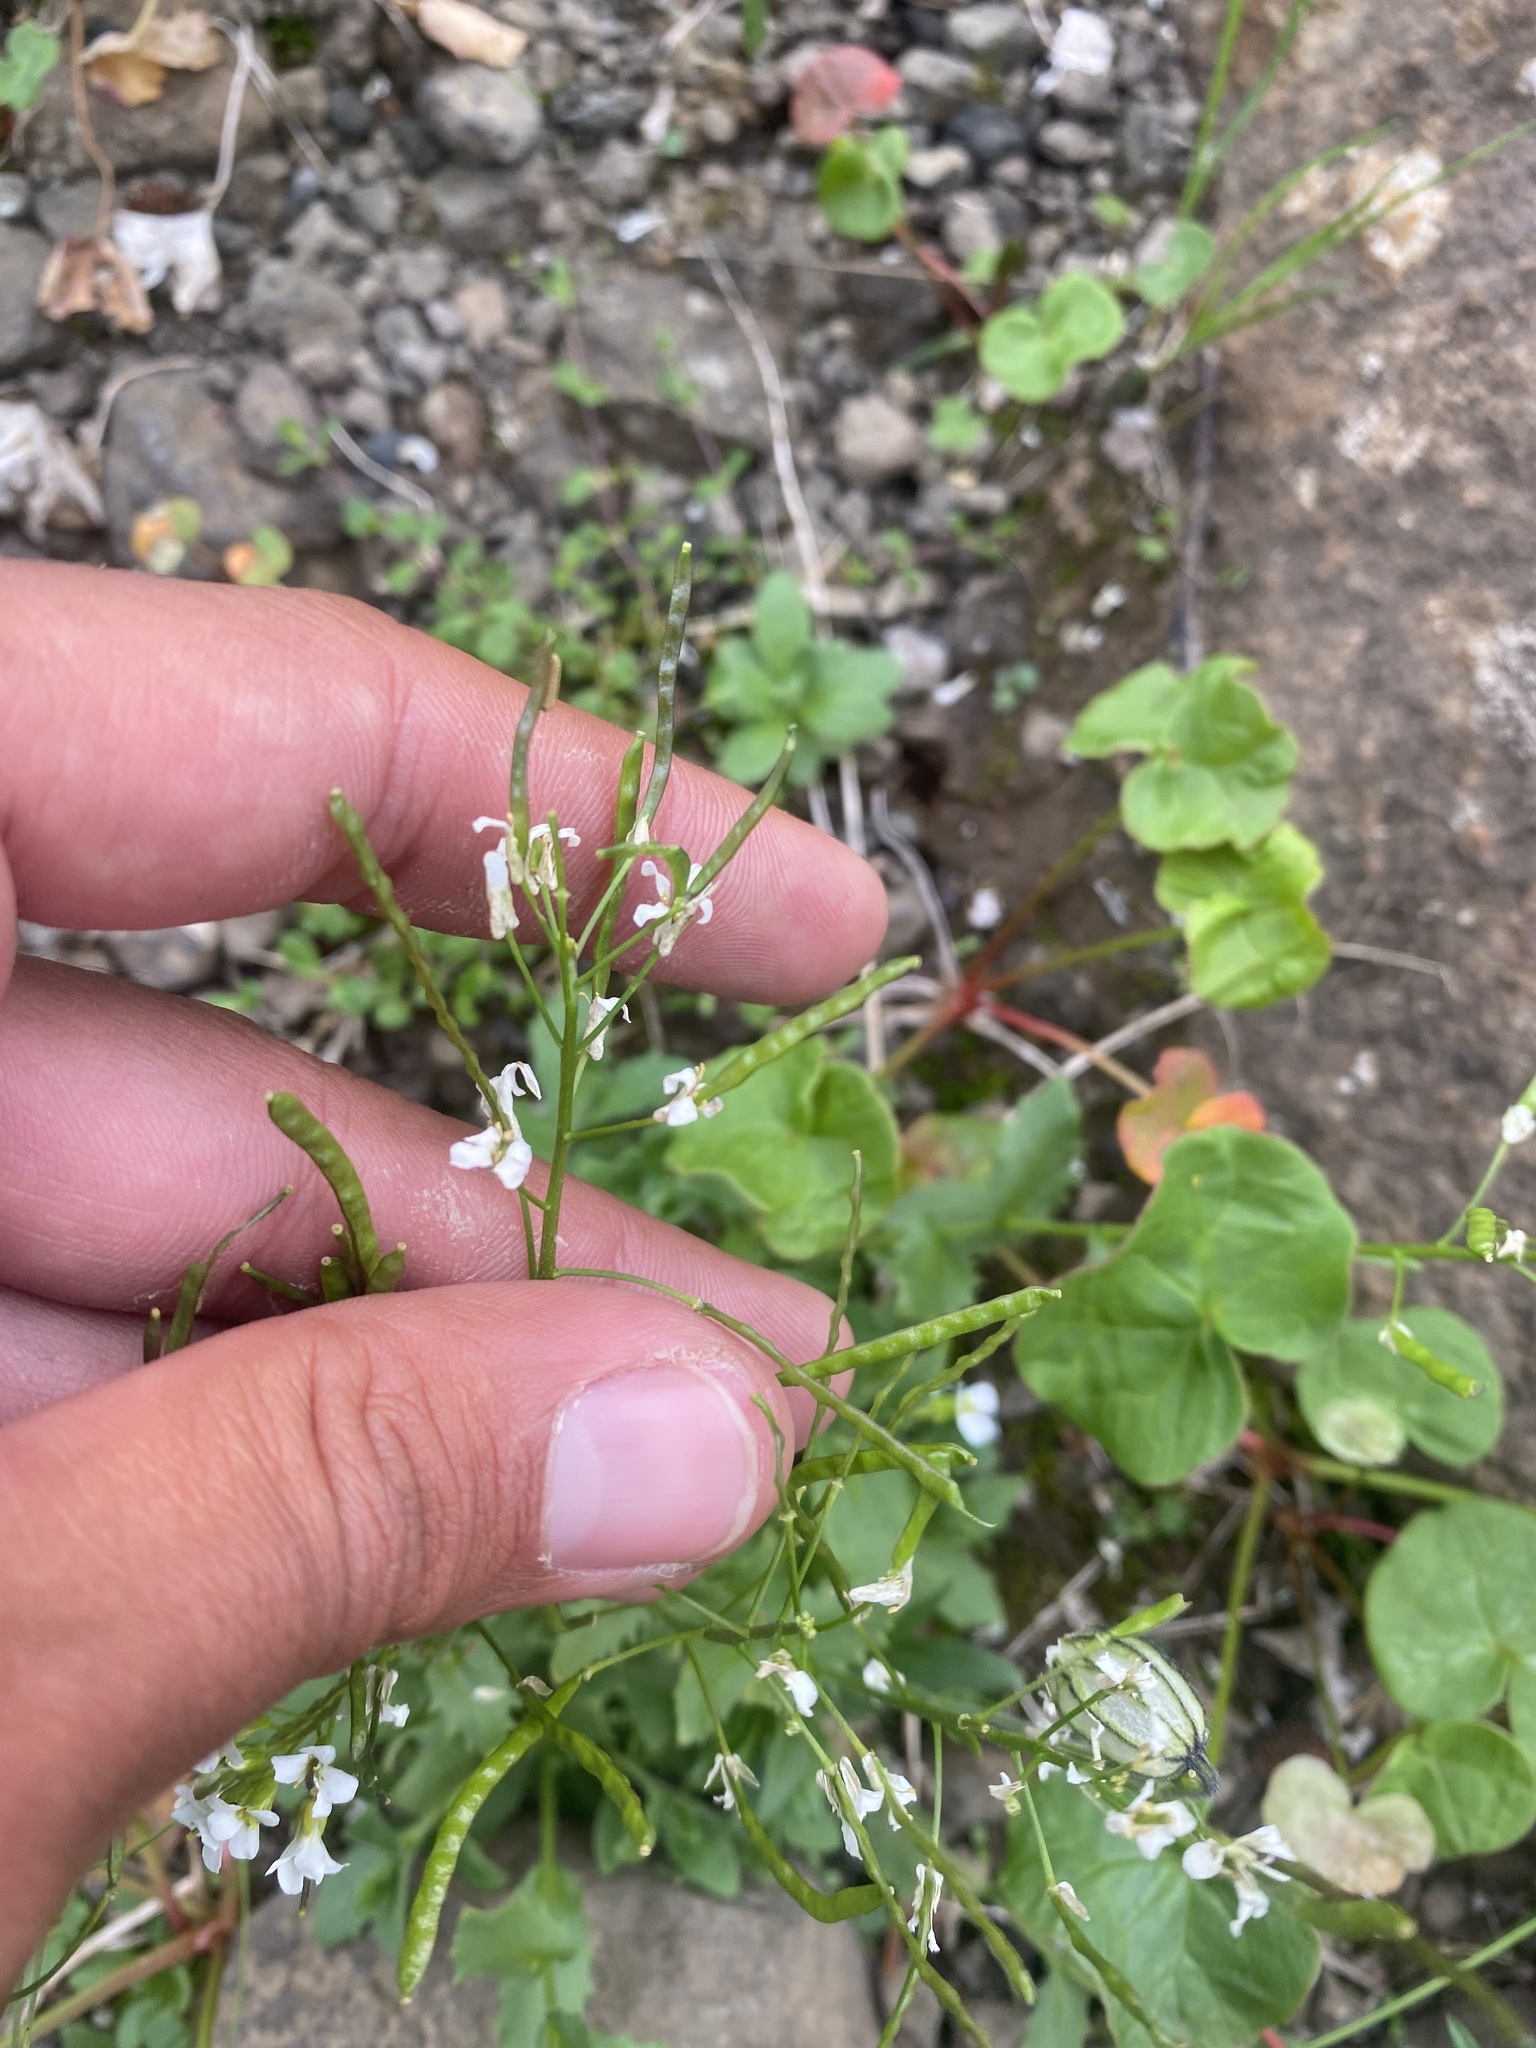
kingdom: Plantae
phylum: Tracheophyta
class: Magnoliopsida
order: Brassicales
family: Brassicaceae
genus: Arabis
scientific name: Arabis alpina
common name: Alpine rock-cress
